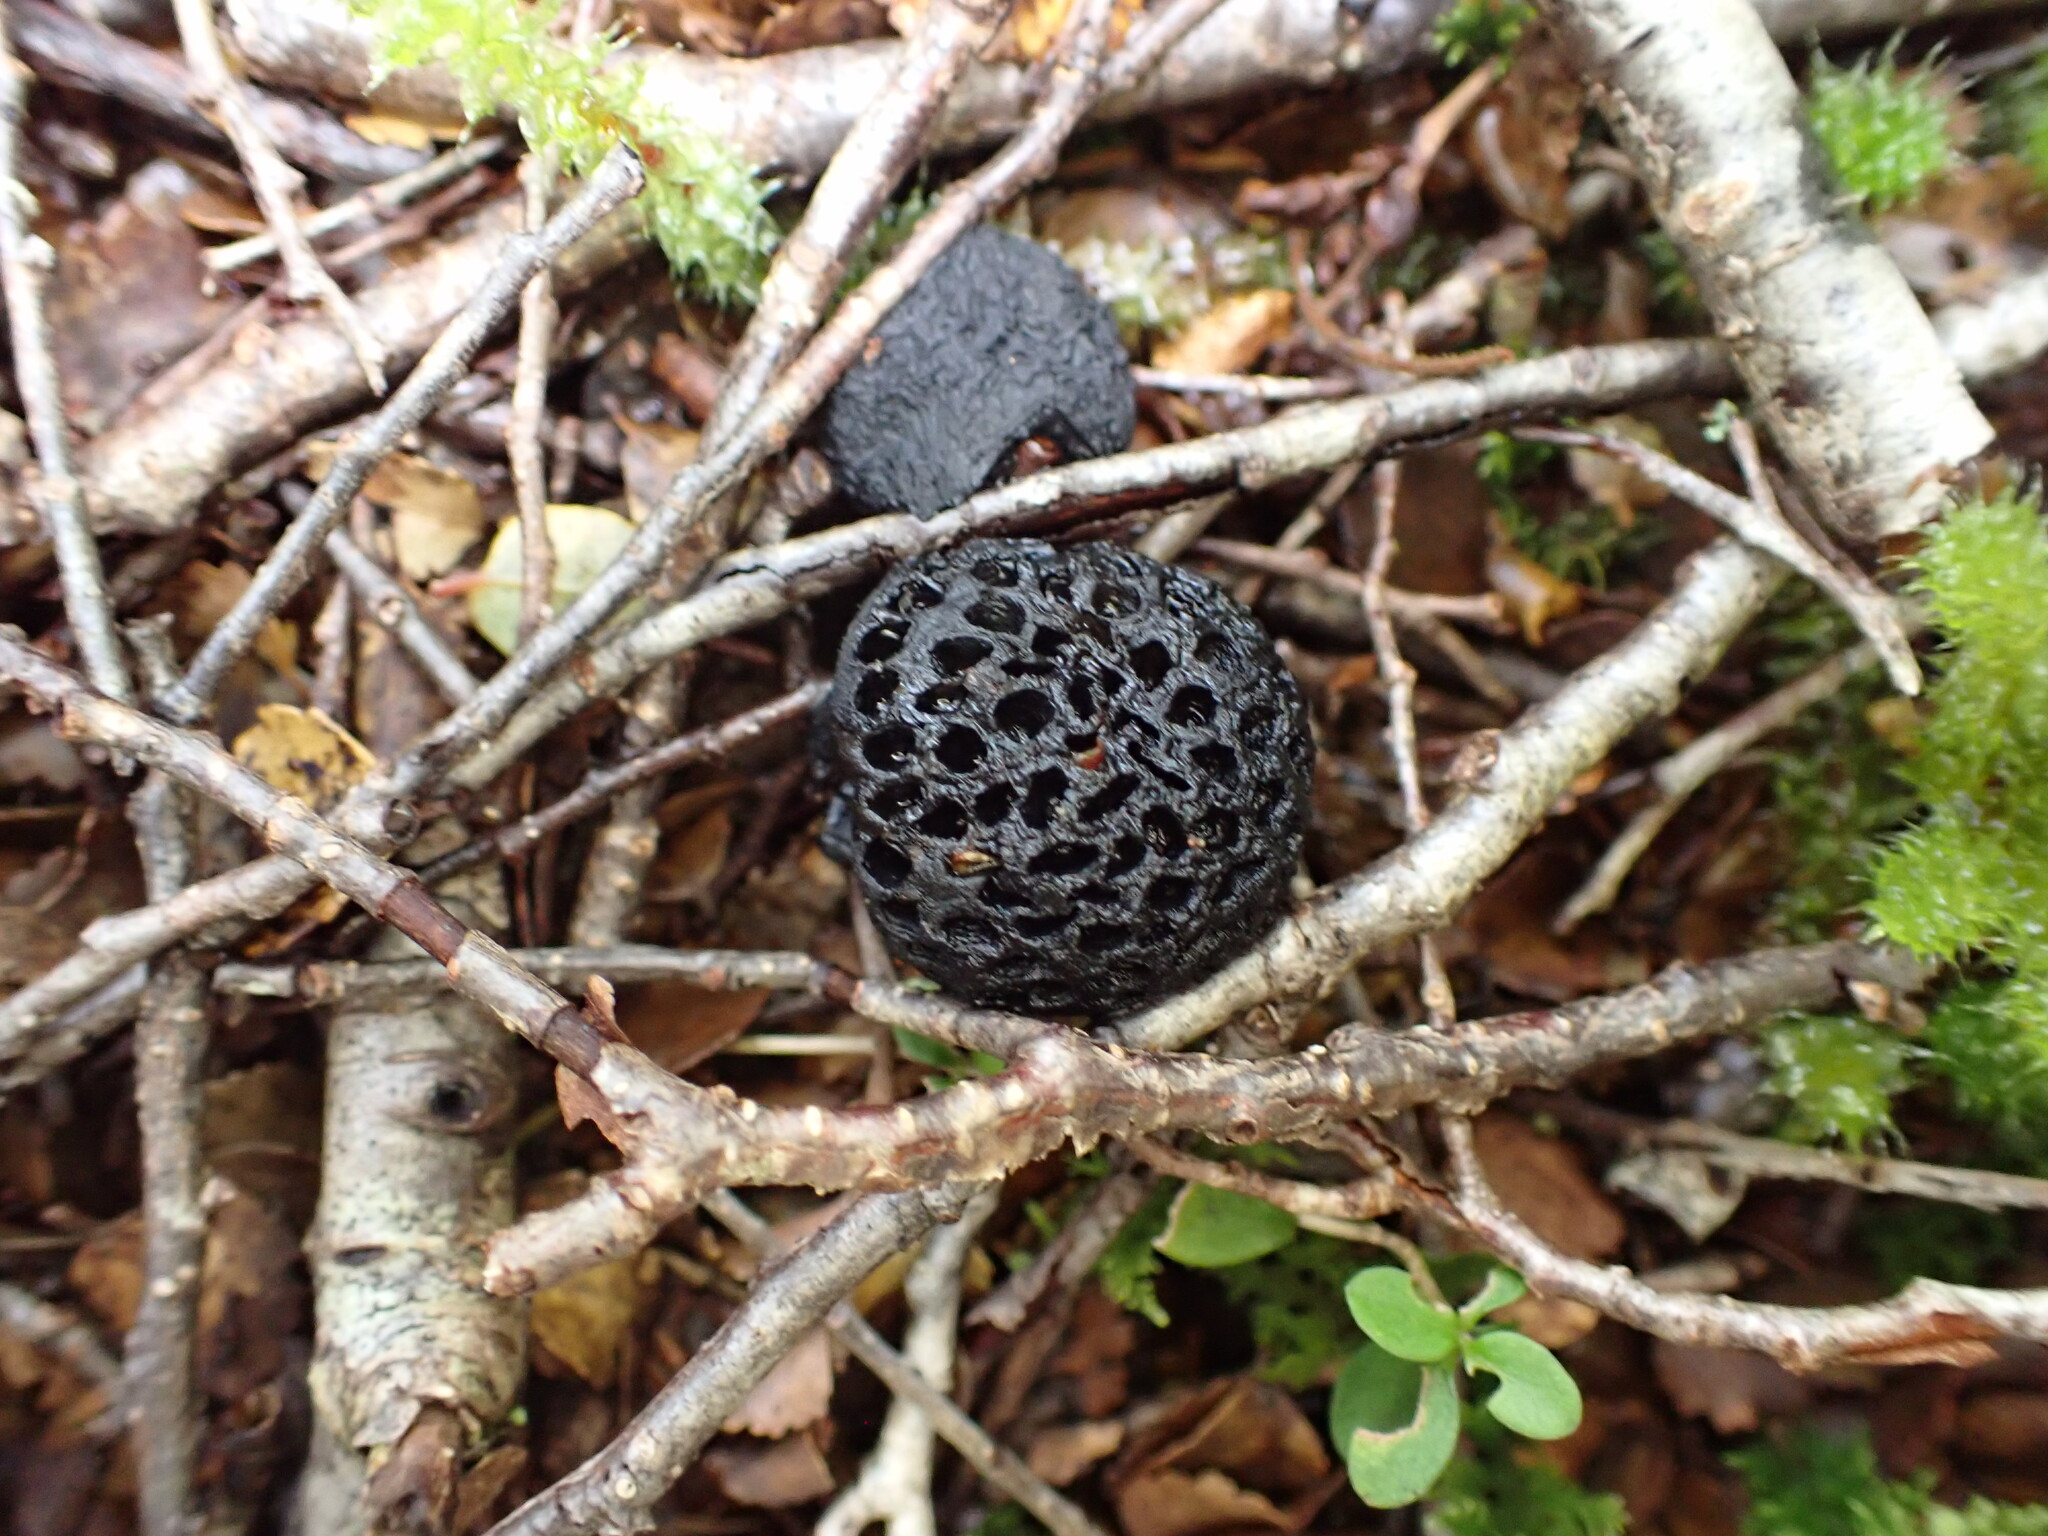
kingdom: Fungi
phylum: Ascomycota
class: Leotiomycetes
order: Cyttariales
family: Cyttariaceae
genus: Cyttaria
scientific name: Cyttaria nigra
